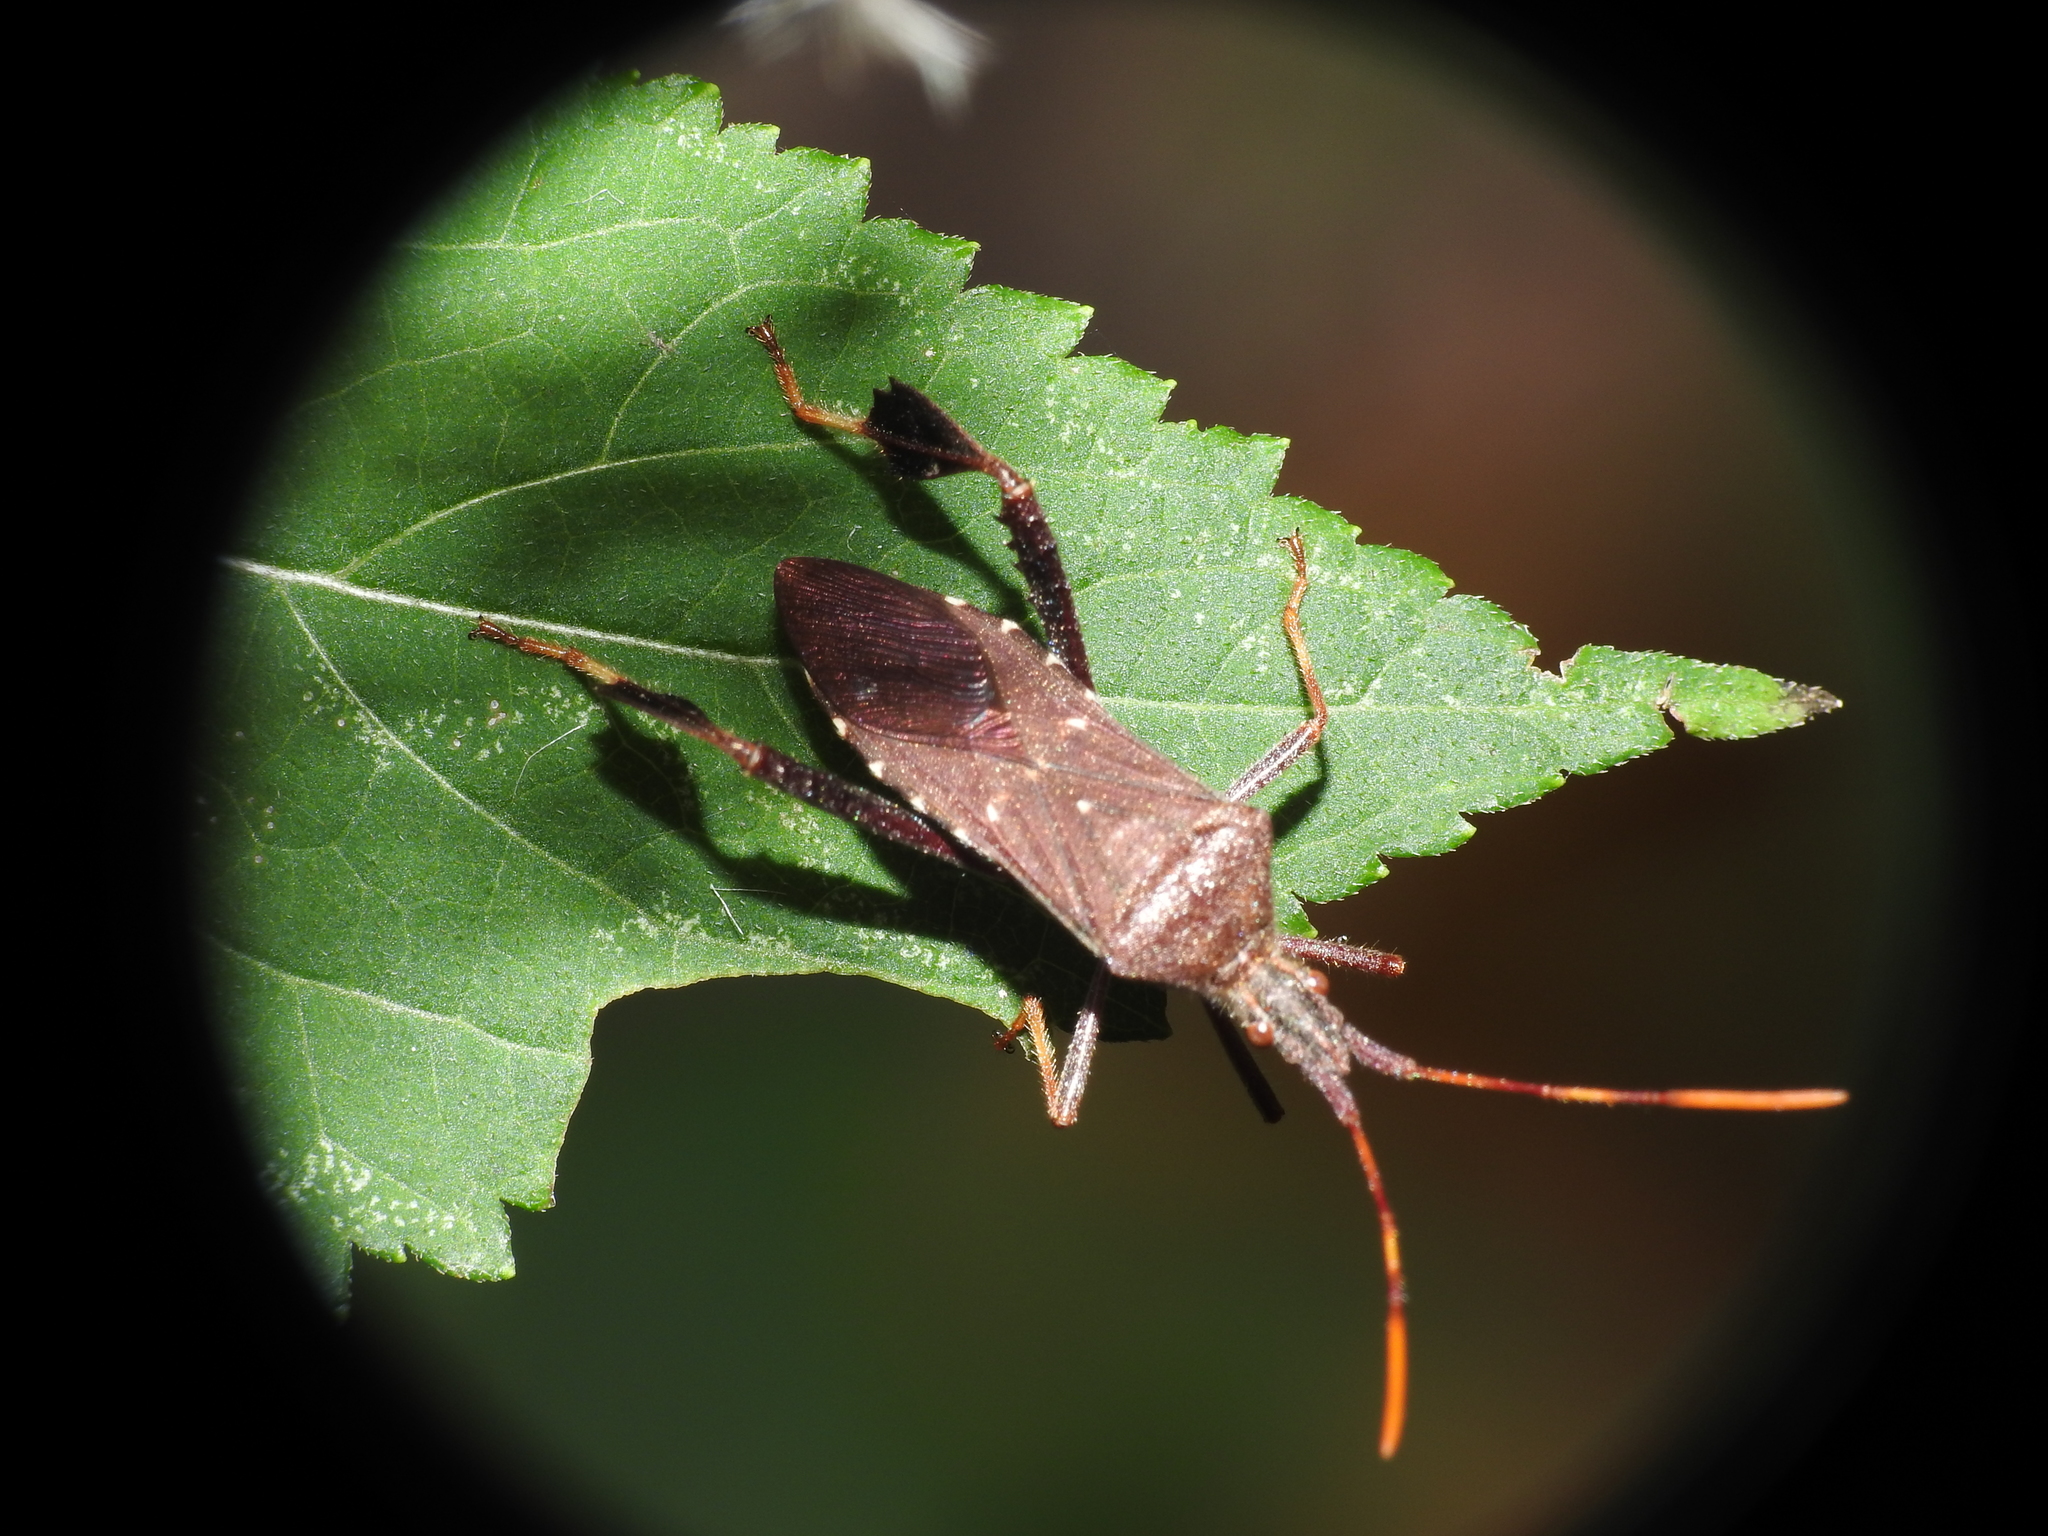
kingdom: Animalia
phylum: Arthropoda
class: Insecta
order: Hemiptera
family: Coreidae
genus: Leptoglossus
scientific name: Leptoglossus oppositus
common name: Northern leaf-footed bug
